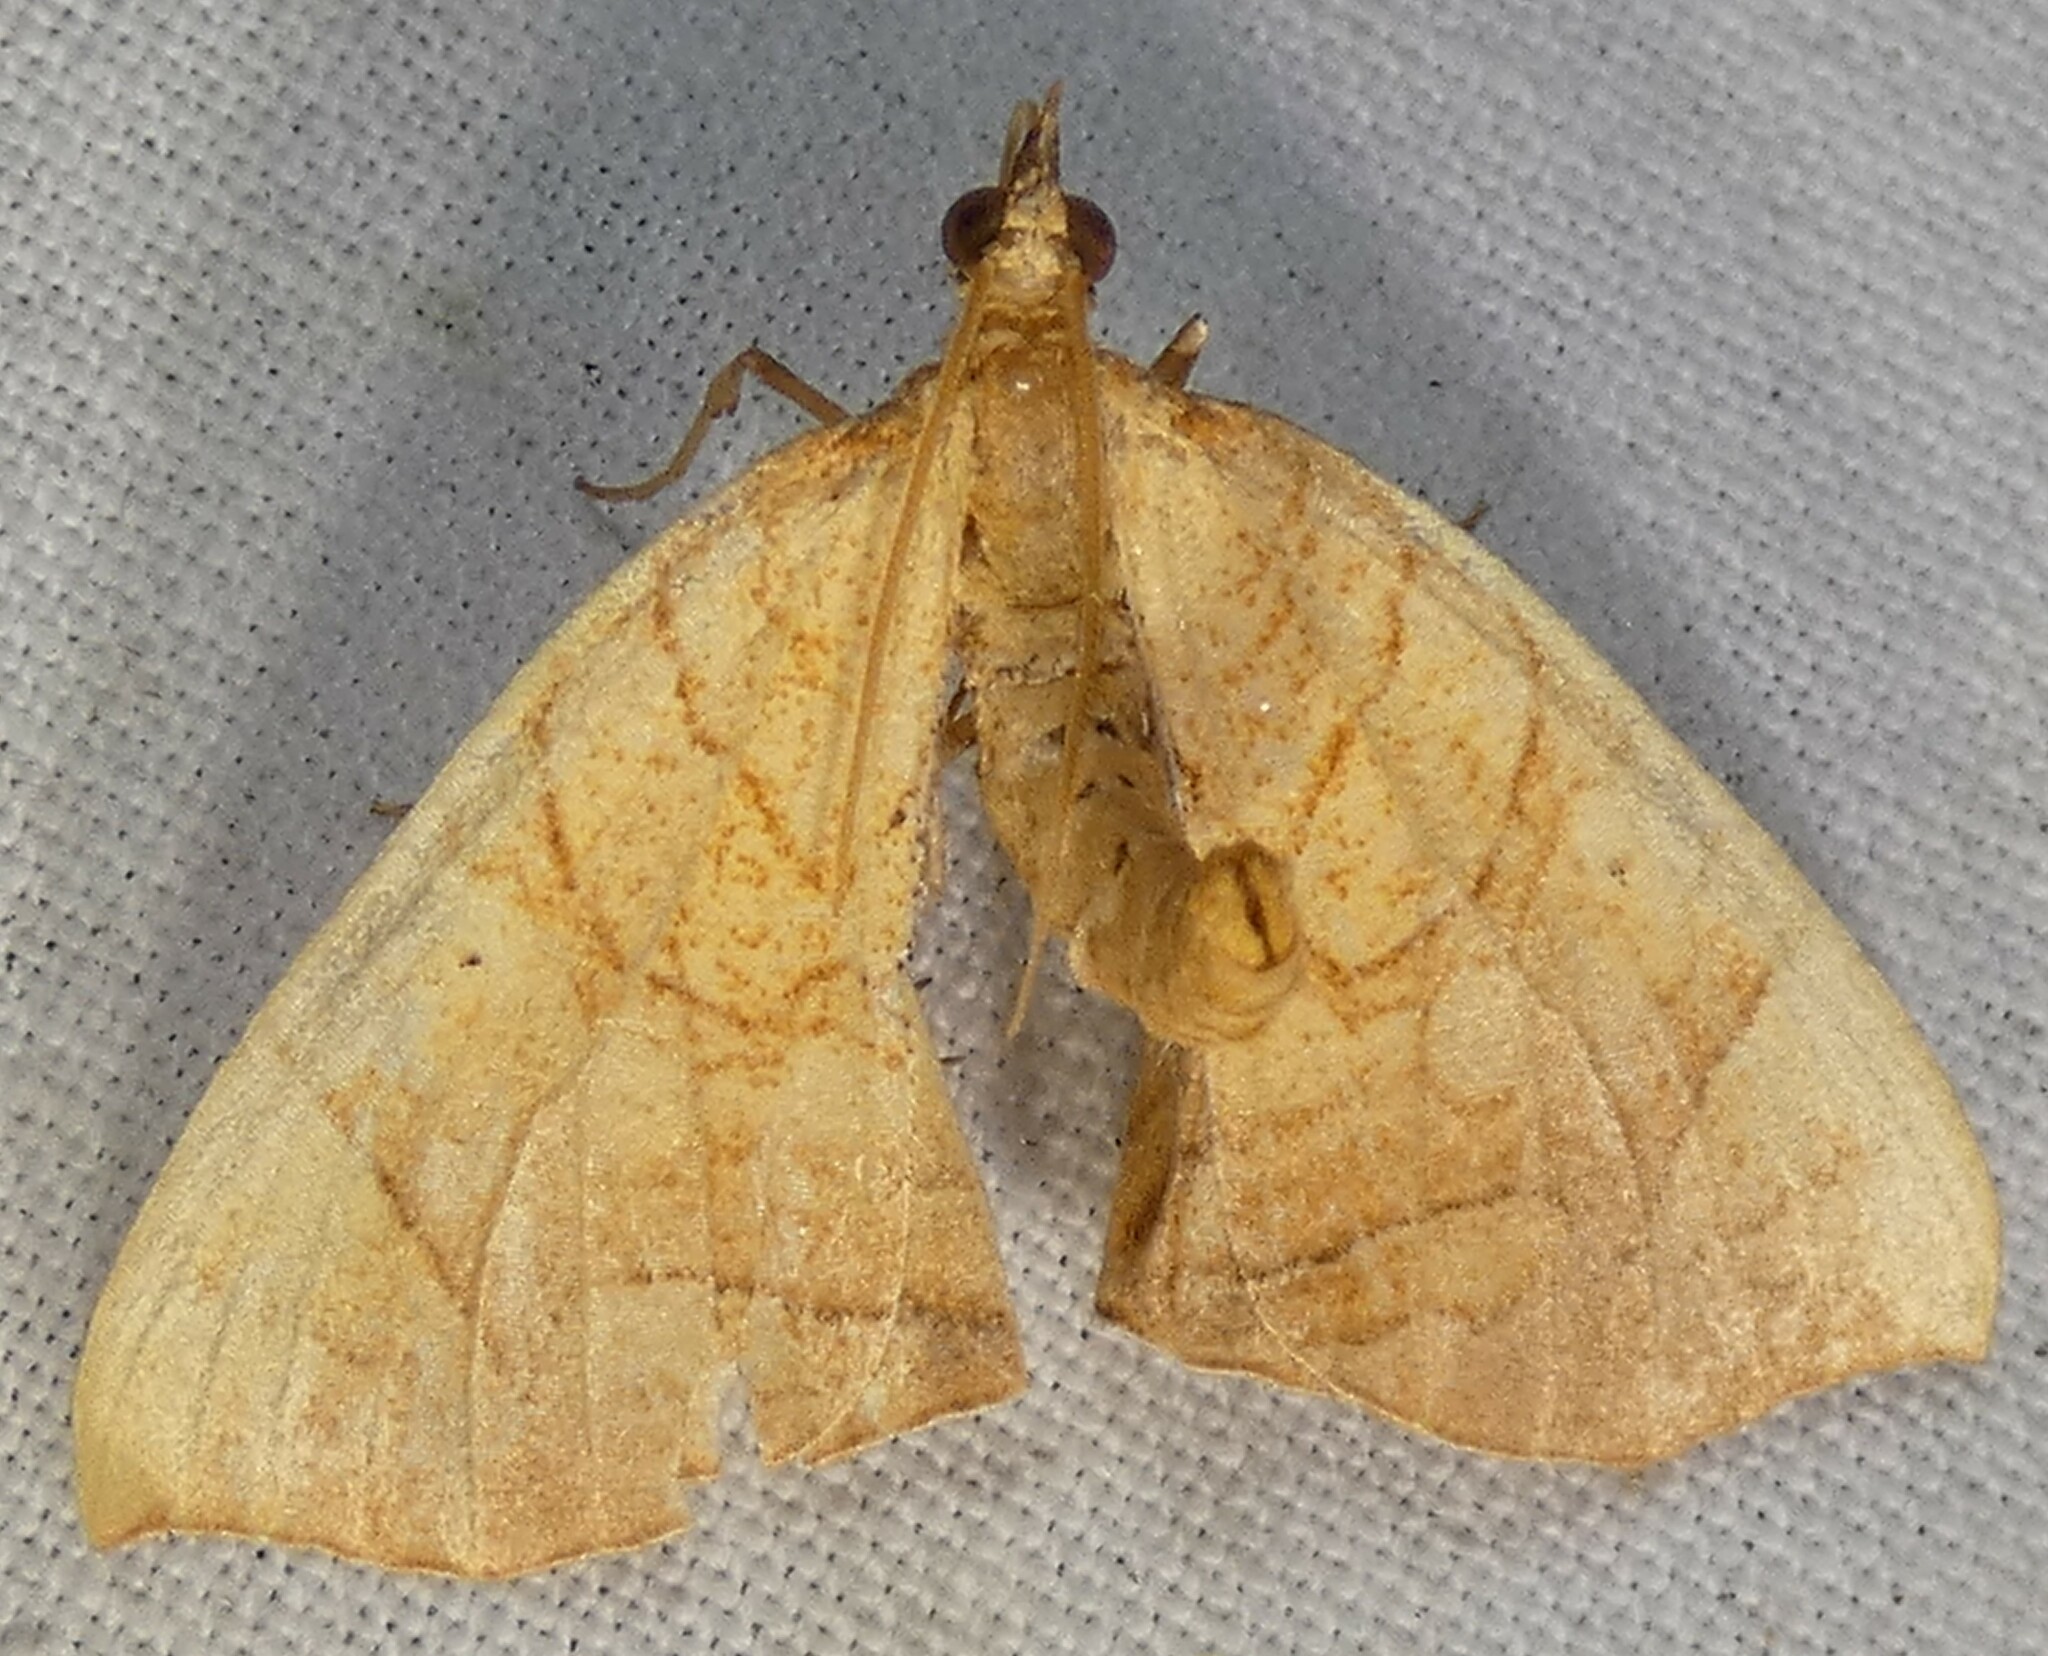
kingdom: Animalia
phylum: Arthropoda
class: Insecta
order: Lepidoptera
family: Geometridae
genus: Eulithis
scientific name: Eulithis
